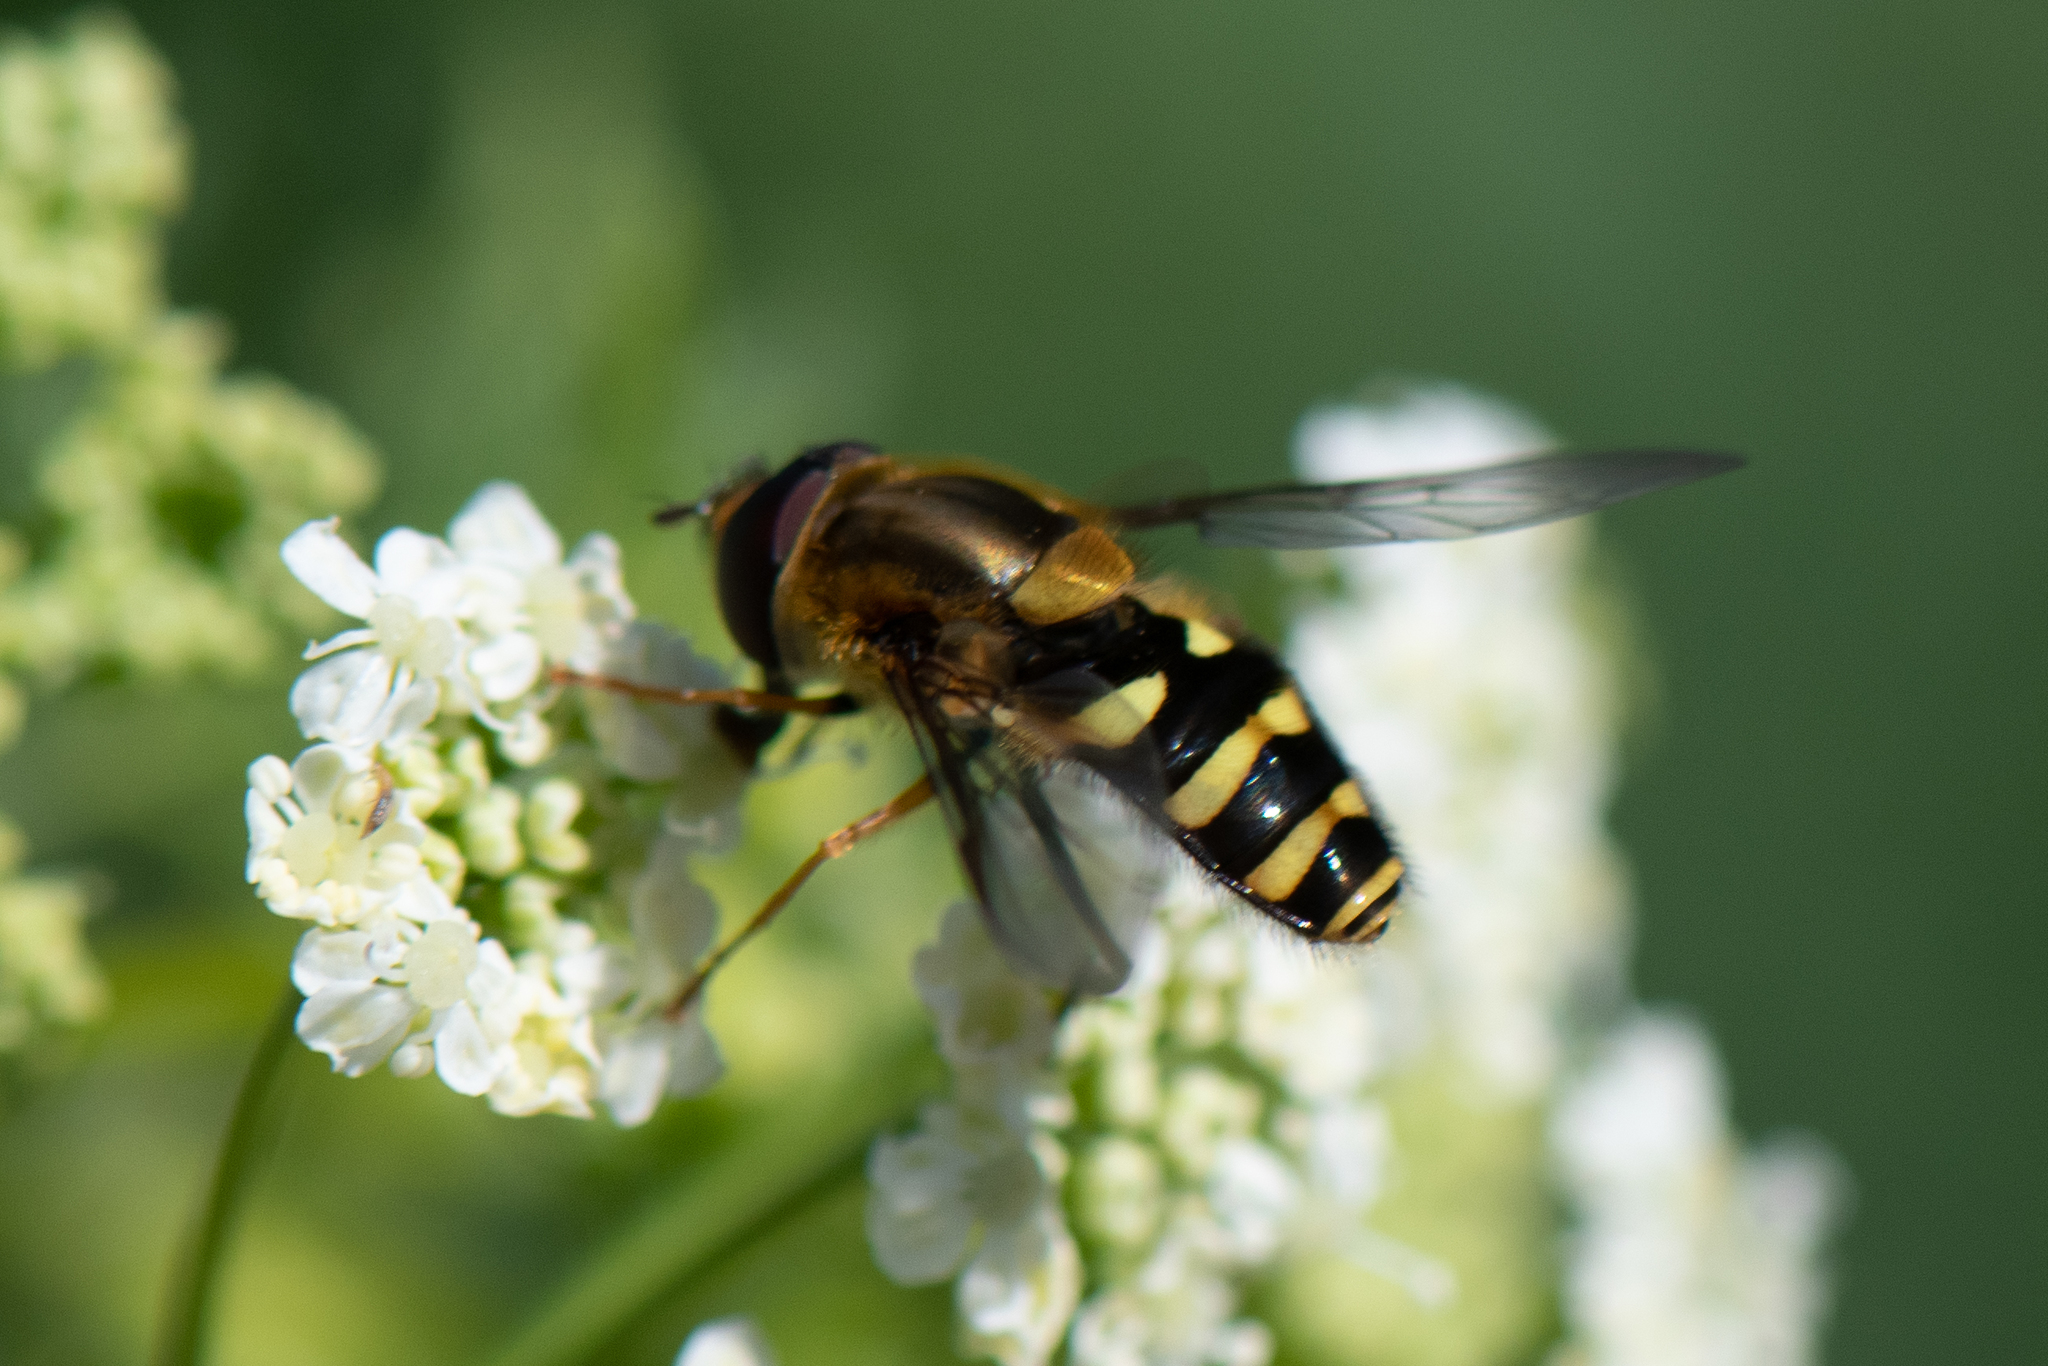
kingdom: Animalia
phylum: Arthropoda
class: Insecta
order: Diptera
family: Syrphidae
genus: Syrphus
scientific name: Syrphus opinator
